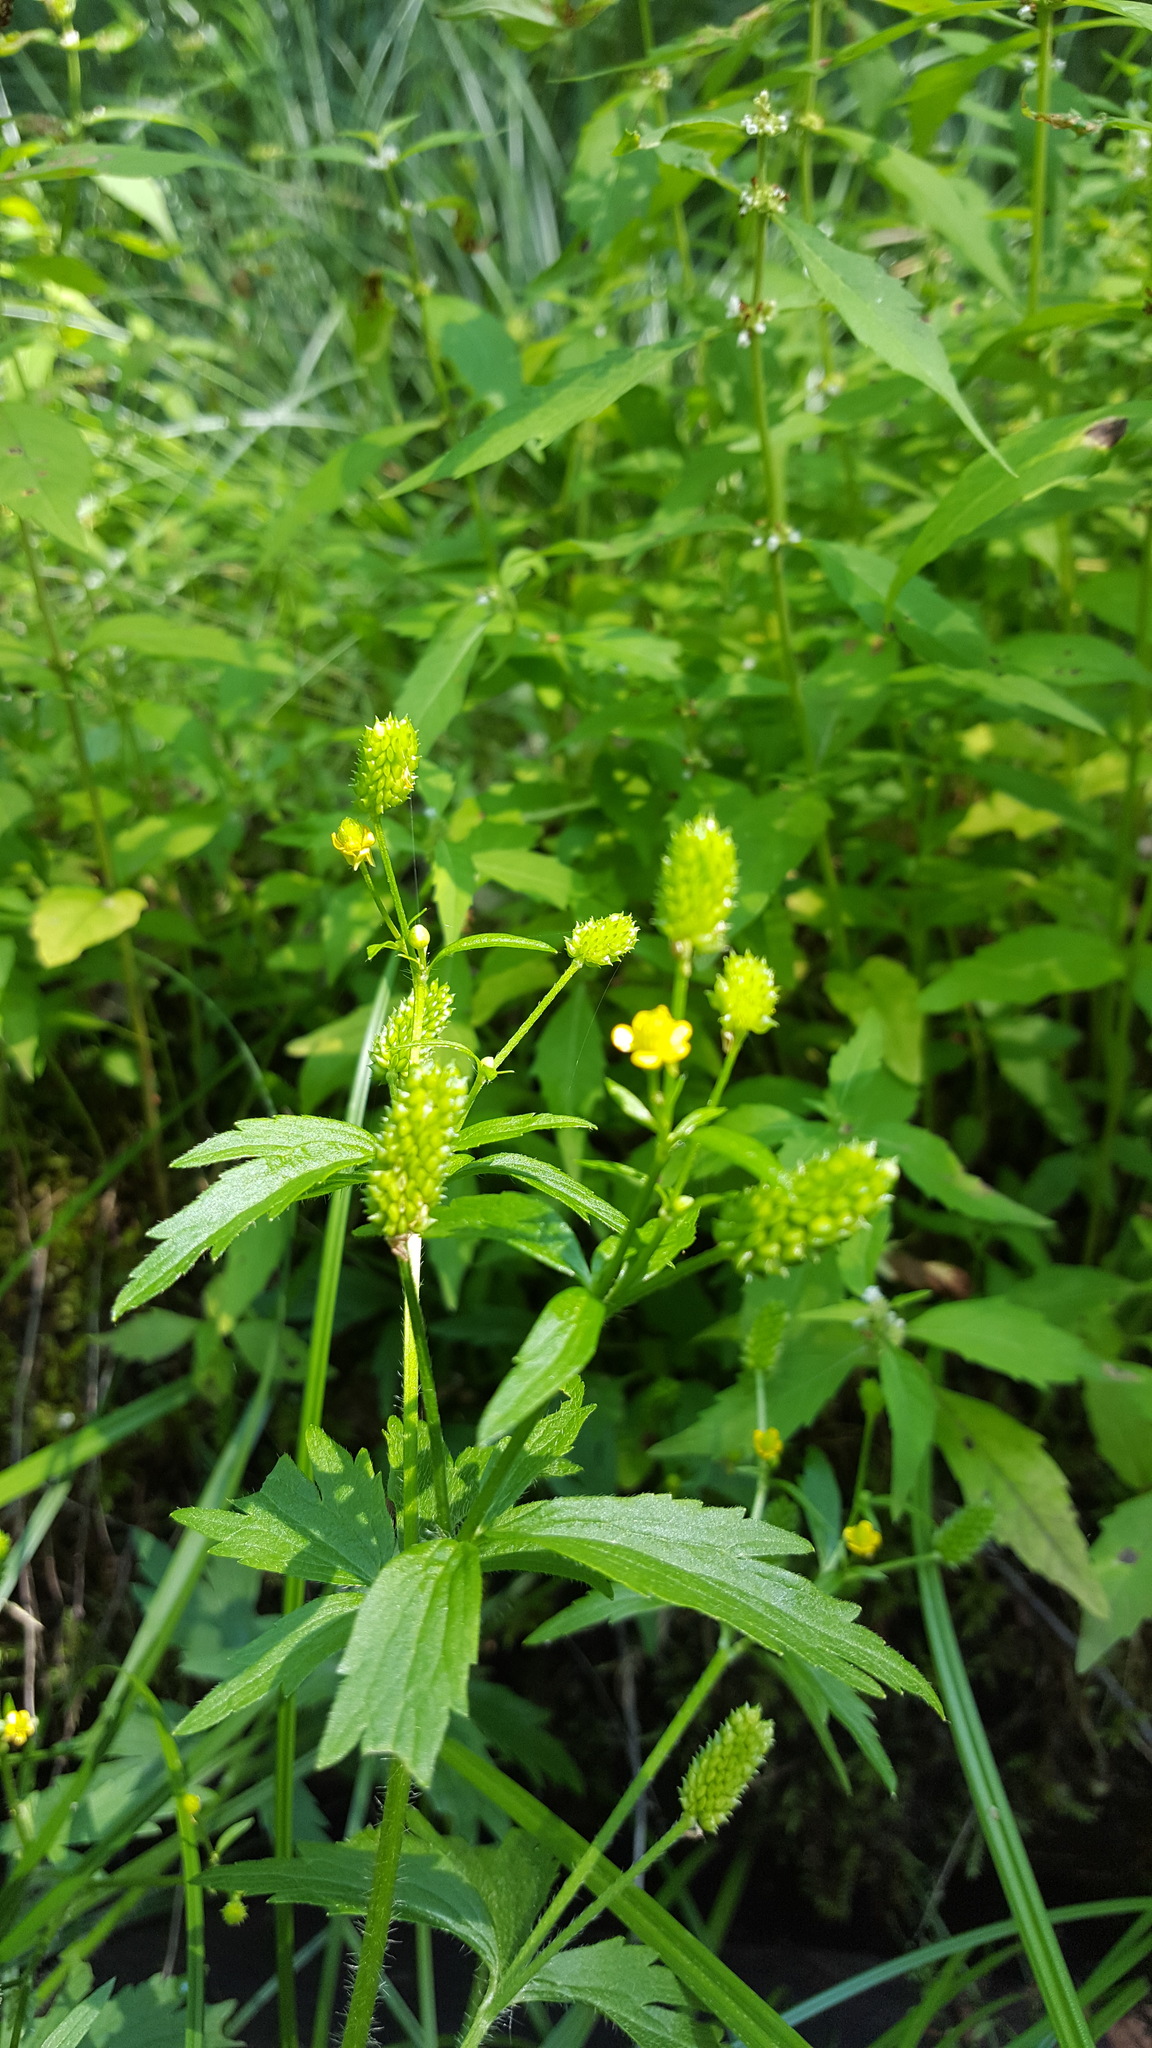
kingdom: Plantae
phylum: Tracheophyta
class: Magnoliopsida
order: Ranunculales
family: Ranunculaceae
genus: Ranunculus
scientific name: Ranunculus pensylvanicus
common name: Bristly buttercup
